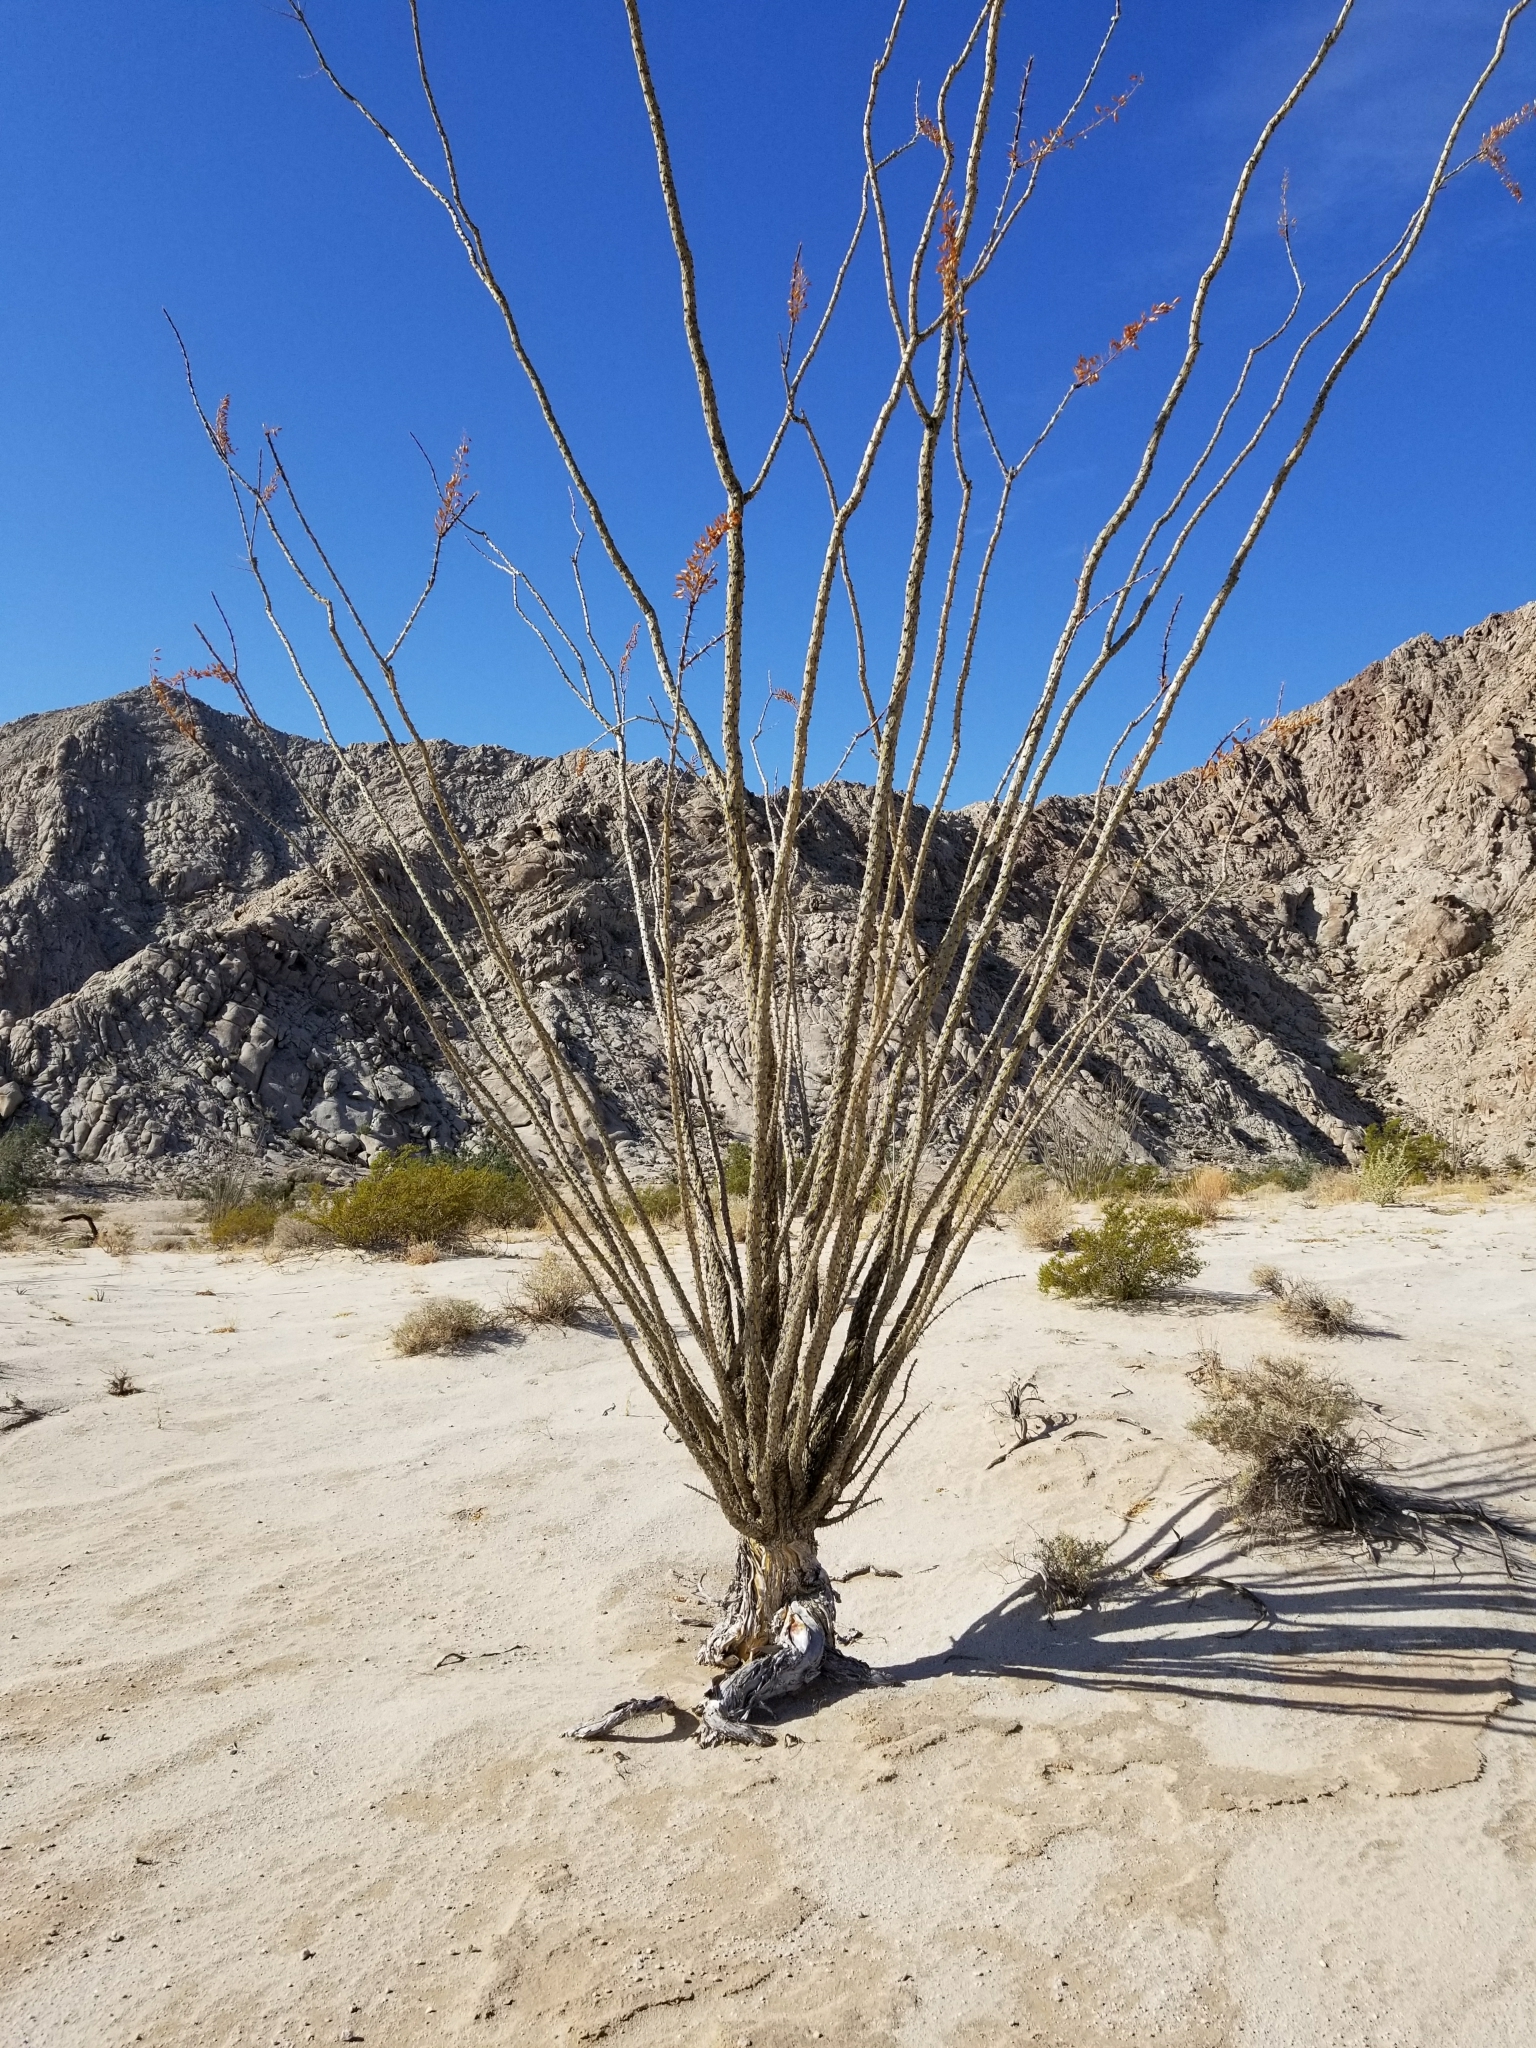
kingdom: Plantae
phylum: Tracheophyta
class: Magnoliopsida
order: Ericales
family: Fouquieriaceae
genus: Fouquieria
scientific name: Fouquieria splendens
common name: Vine-cactus
